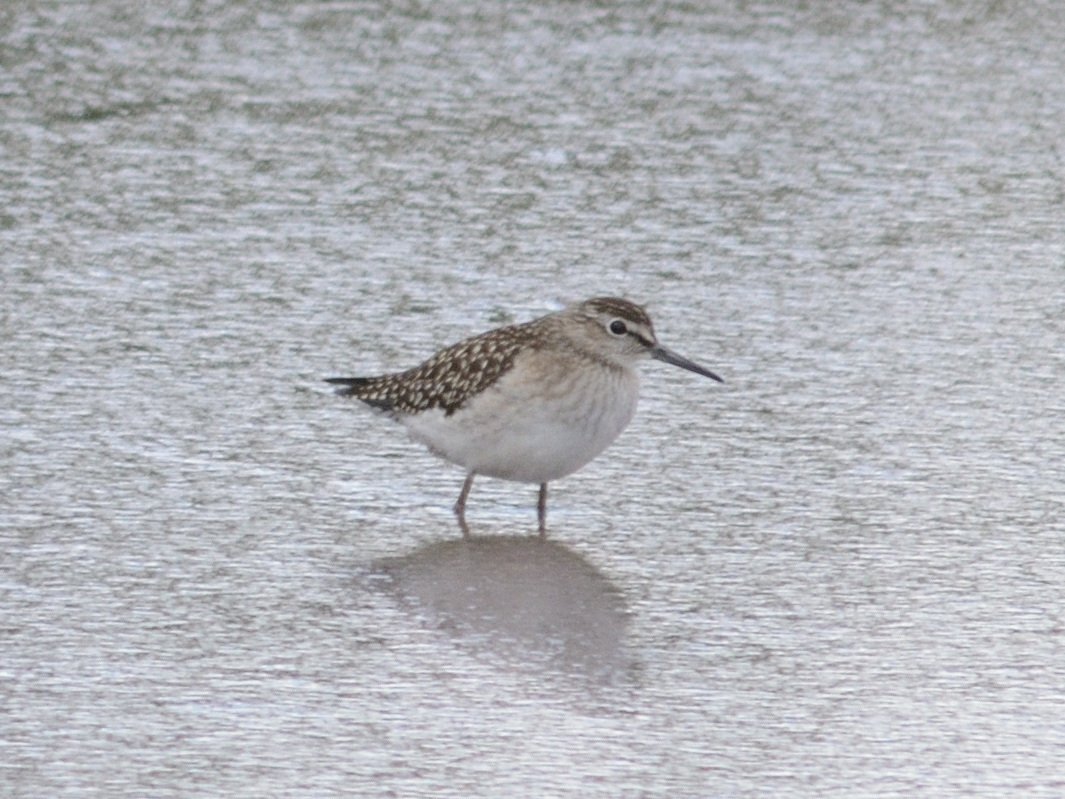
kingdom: Animalia
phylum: Chordata
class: Aves
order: Charadriiformes
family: Scolopacidae
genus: Tringa
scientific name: Tringa glareola
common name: Wood sandpiper
